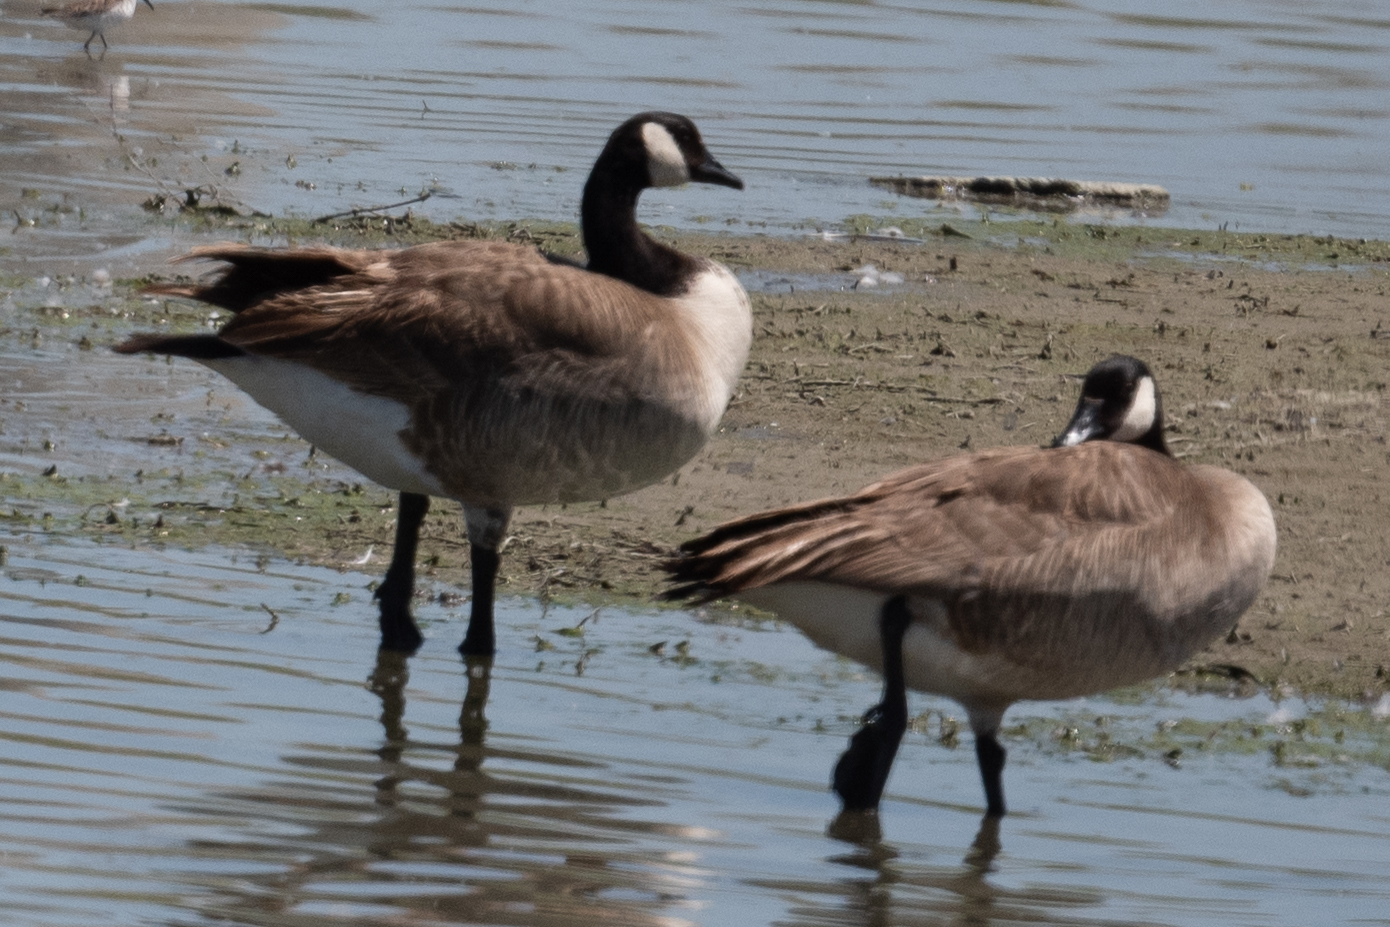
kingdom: Animalia
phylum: Chordata
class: Aves
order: Anseriformes
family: Anatidae
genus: Branta
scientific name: Branta canadensis
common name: Canada goose
